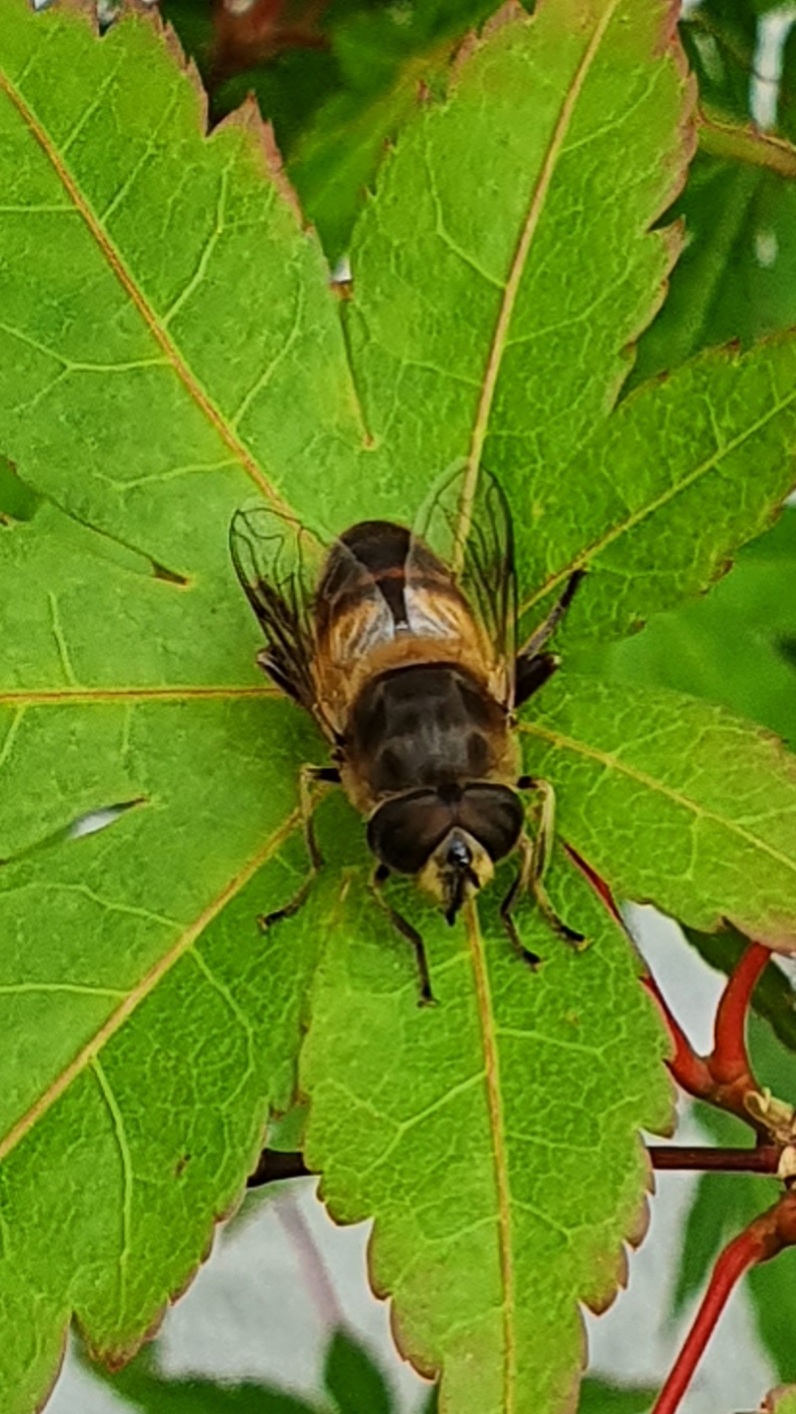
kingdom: Animalia
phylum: Arthropoda
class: Insecta
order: Diptera
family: Syrphidae
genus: Eristalis
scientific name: Eristalis tenax
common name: Drone fly
